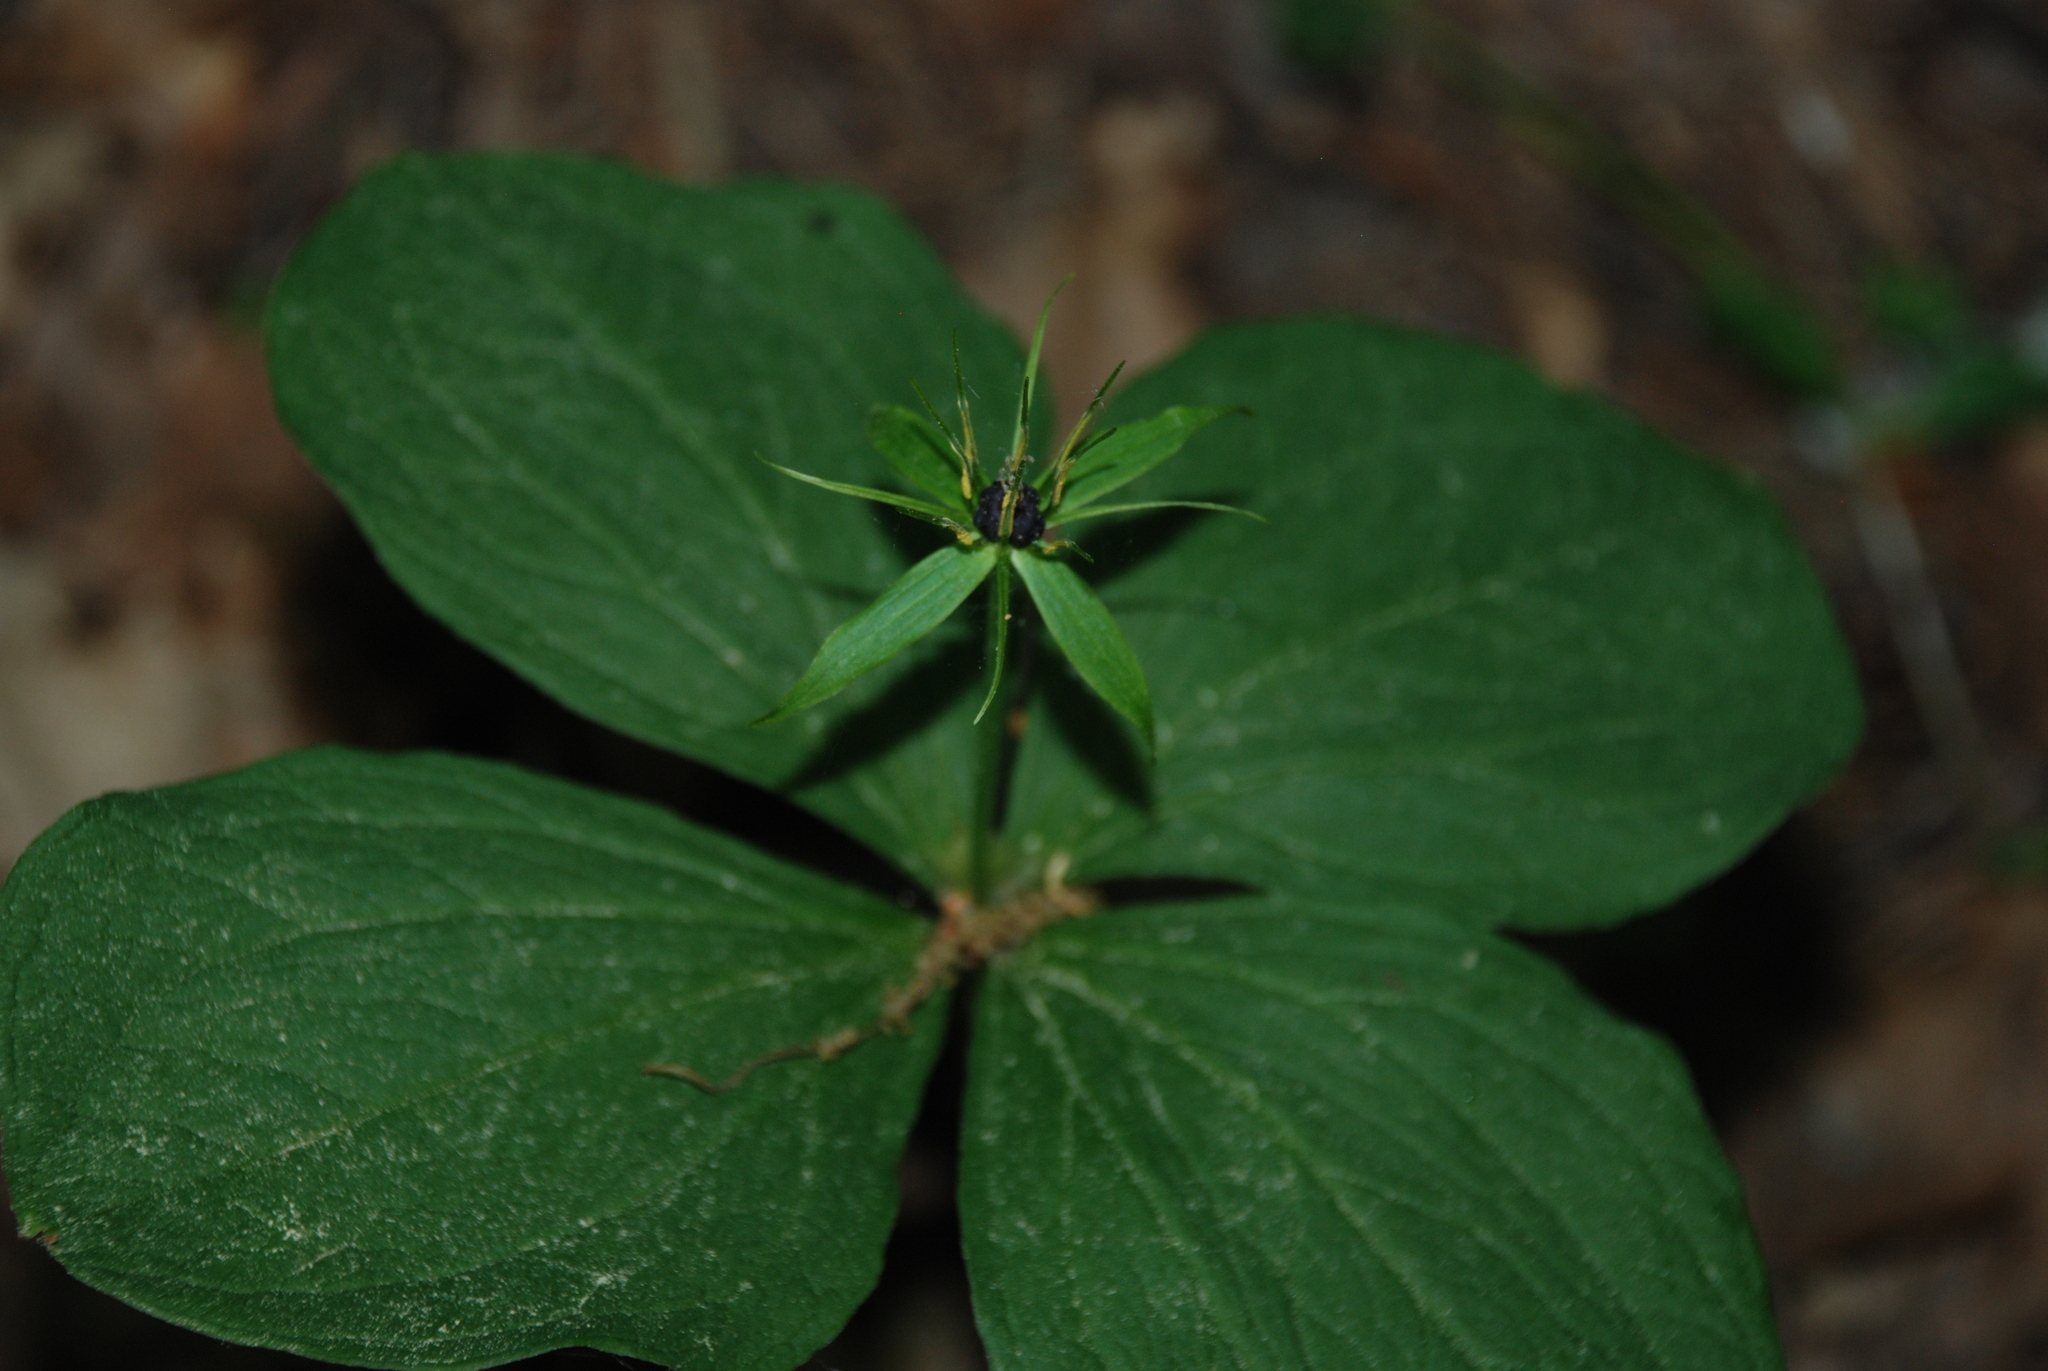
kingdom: Plantae
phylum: Tracheophyta
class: Liliopsida
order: Liliales
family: Melanthiaceae
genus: Paris
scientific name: Paris quadrifolia
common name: Herb-paris
